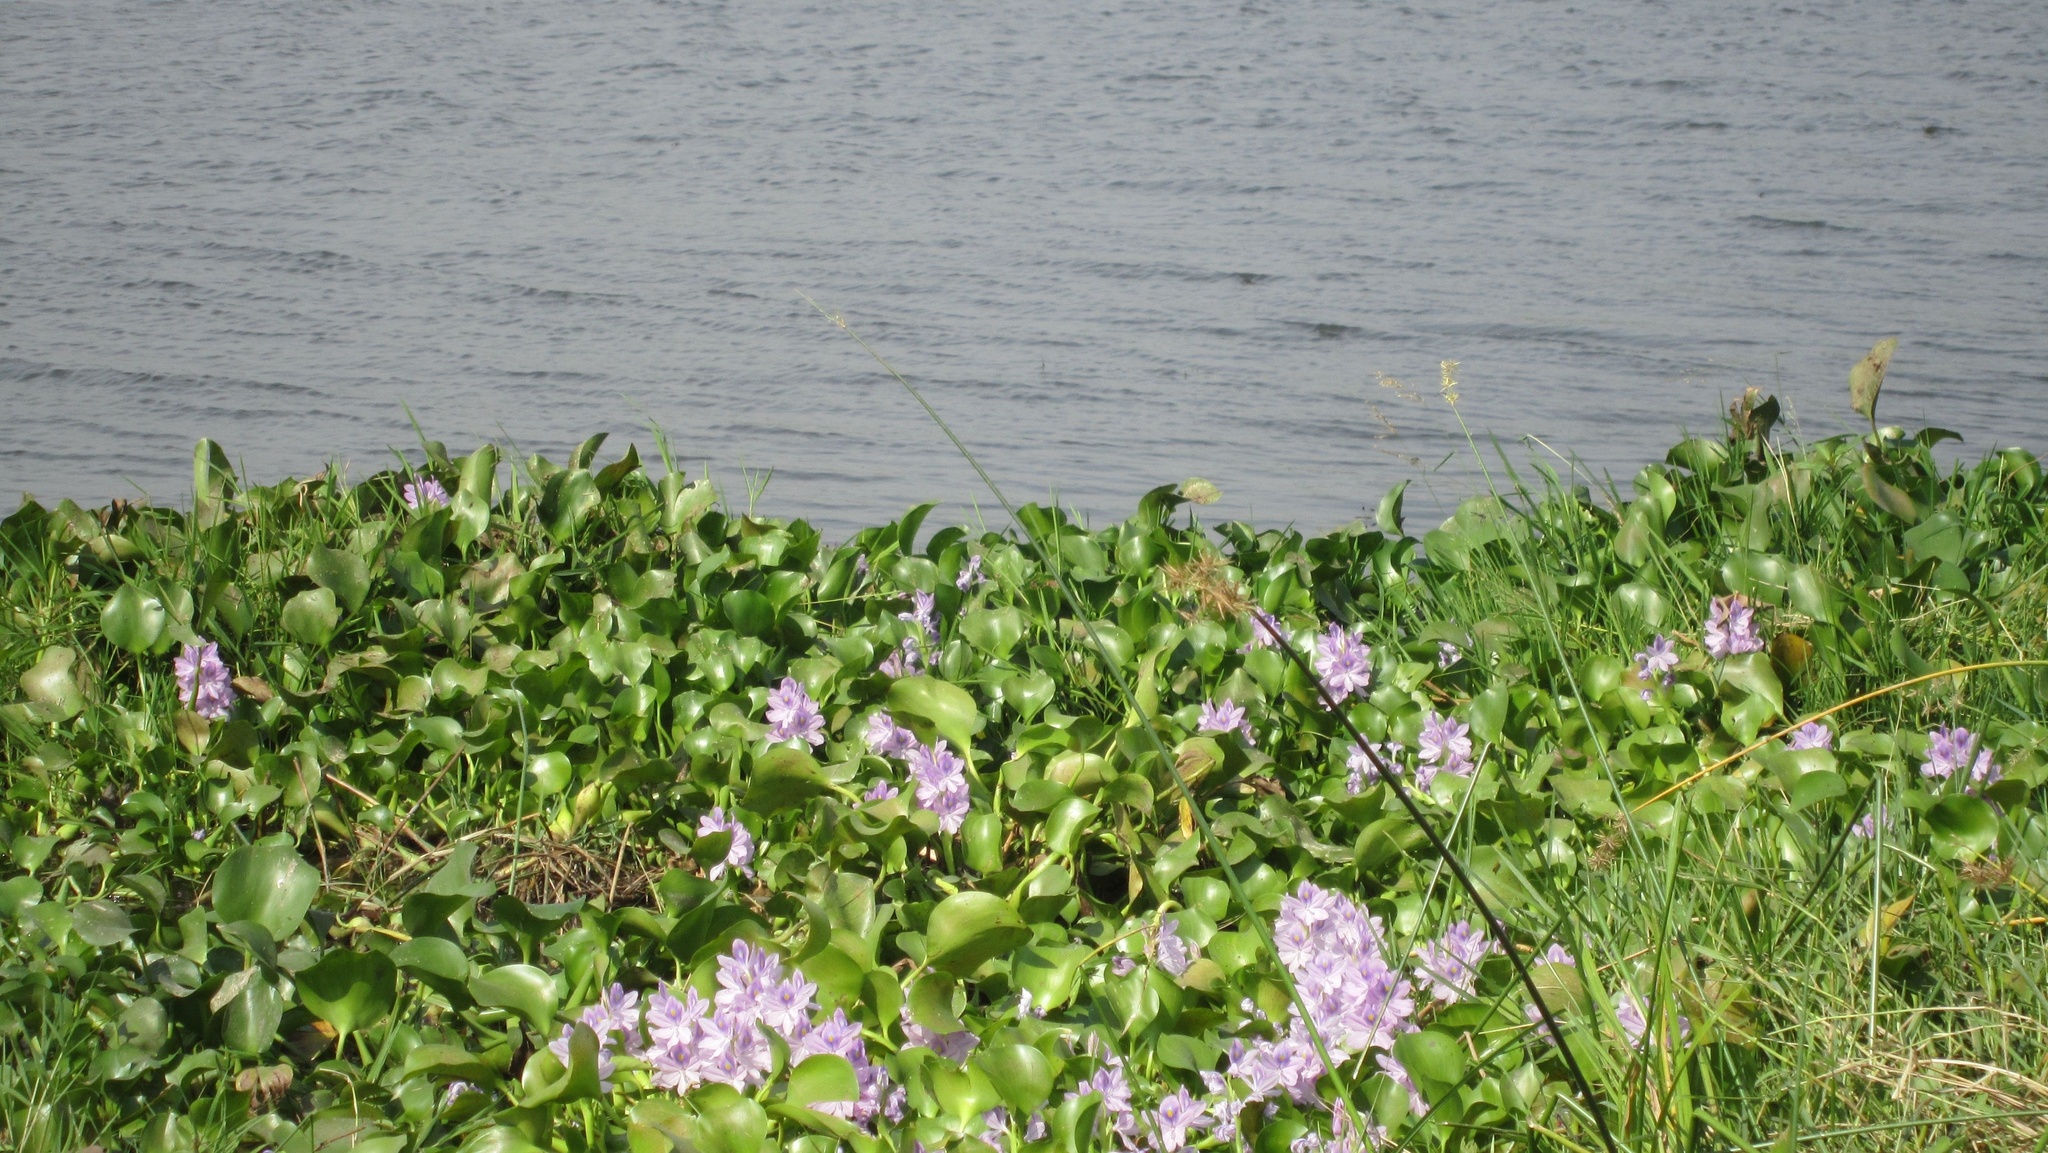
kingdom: Plantae
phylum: Tracheophyta
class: Liliopsida
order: Commelinales
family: Pontederiaceae
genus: Pontederia
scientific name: Pontederia crassipes
